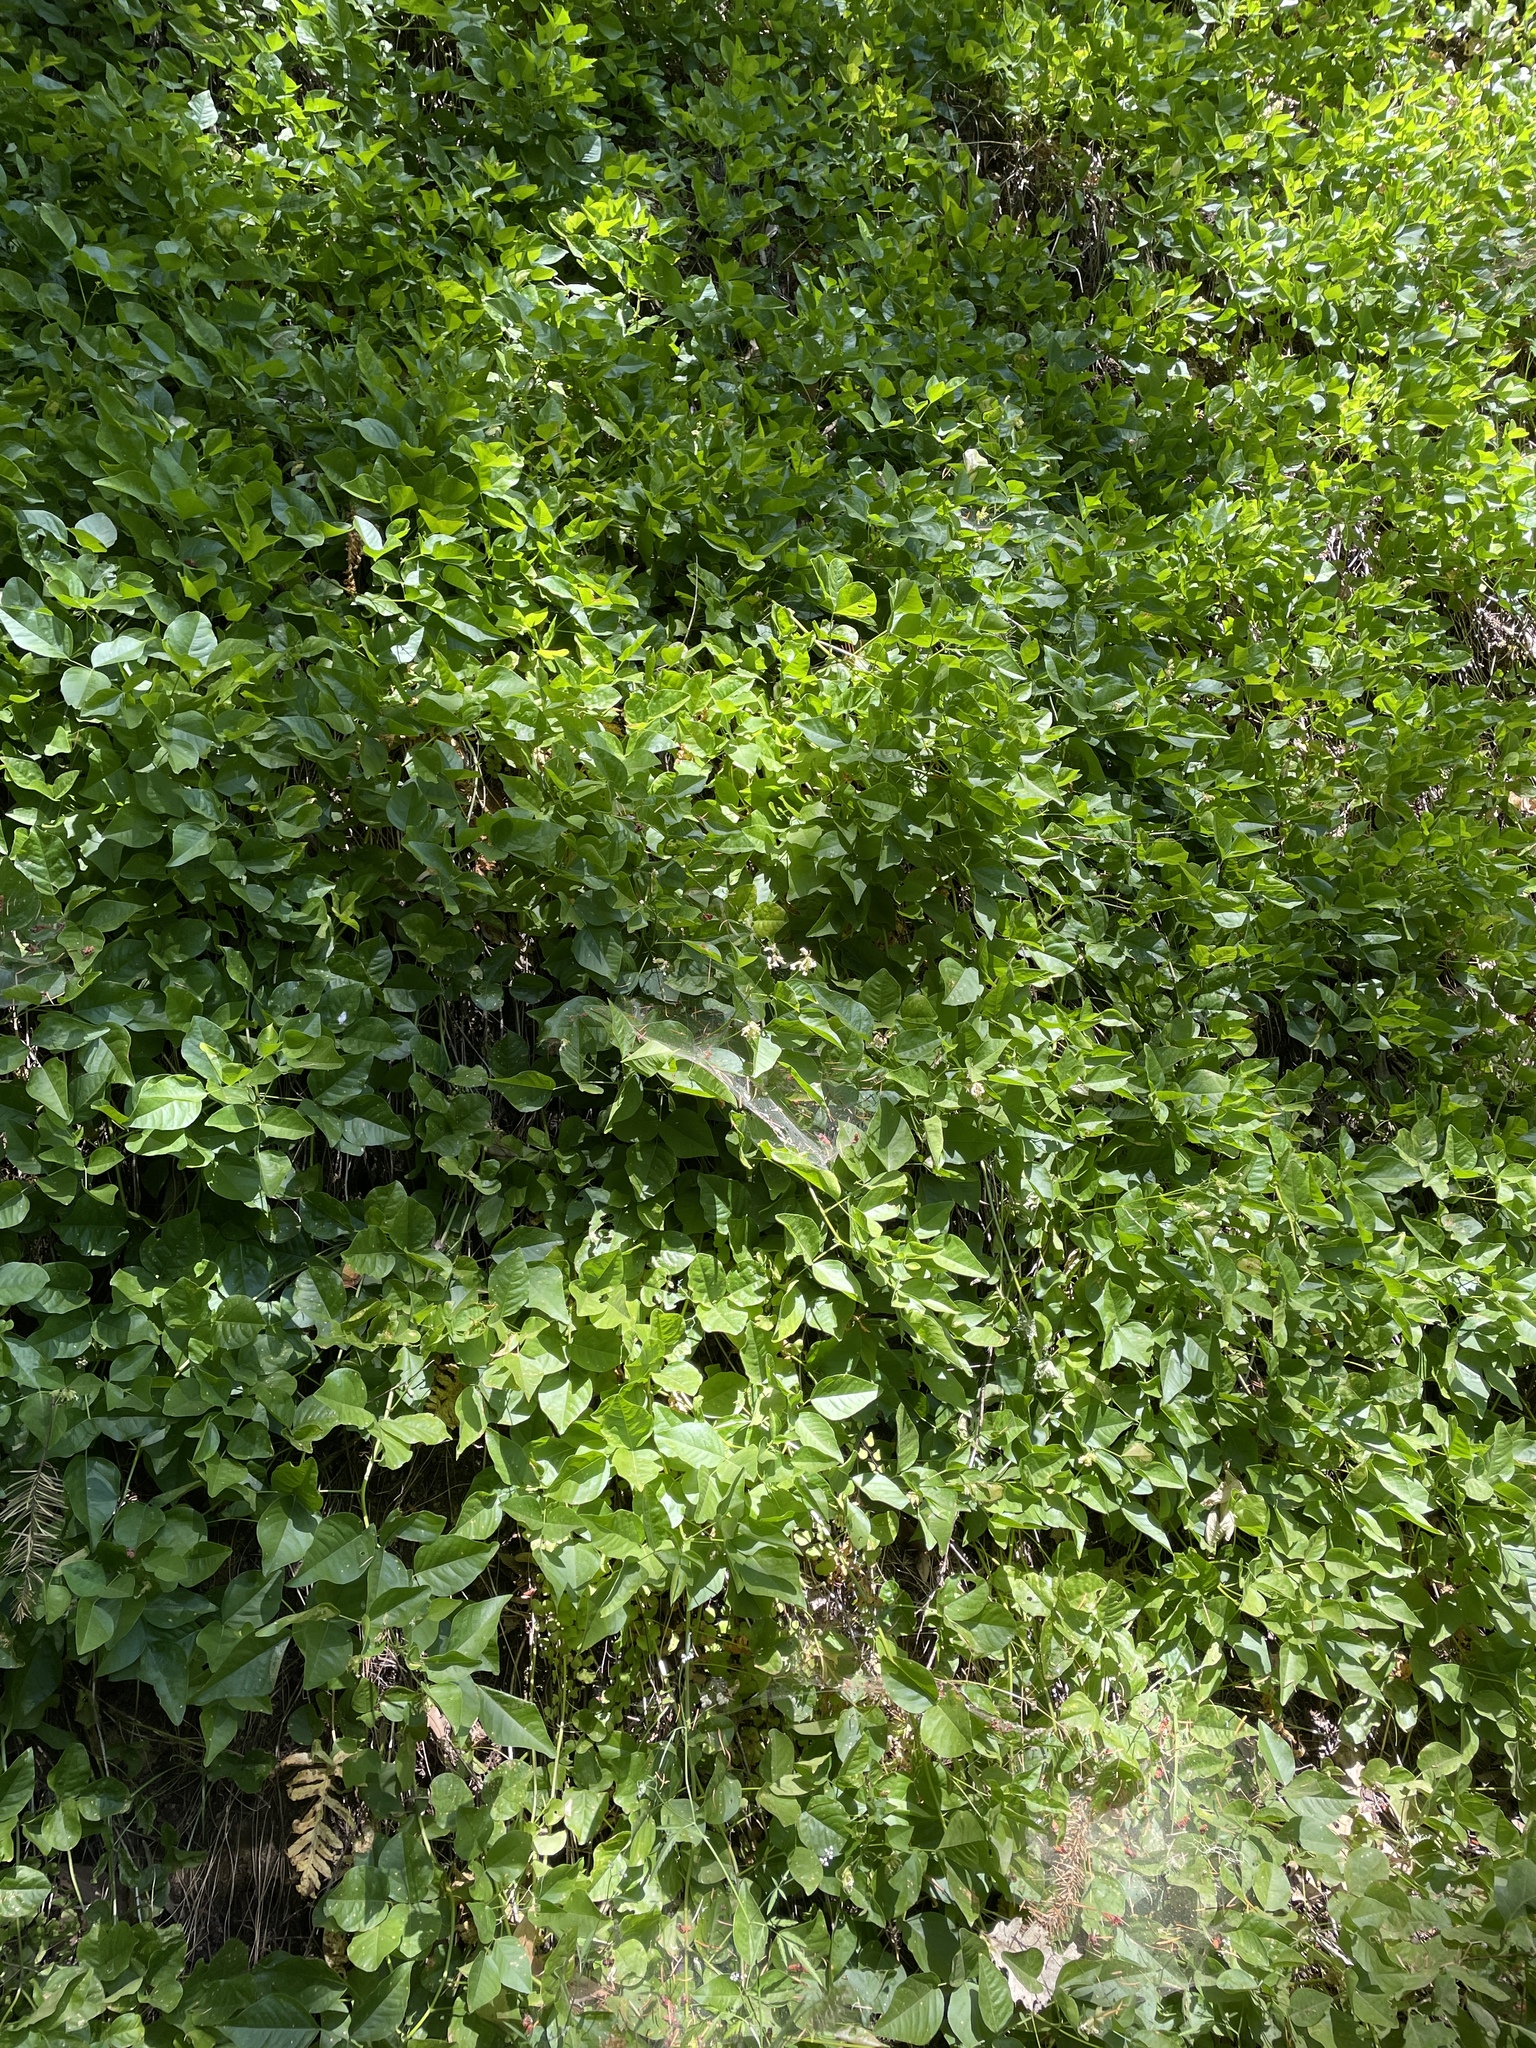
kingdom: Plantae
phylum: Tracheophyta
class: Magnoliopsida
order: Fabales
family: Fabaceae
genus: Rupertia
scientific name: Rupertia physodes
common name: California-tea
